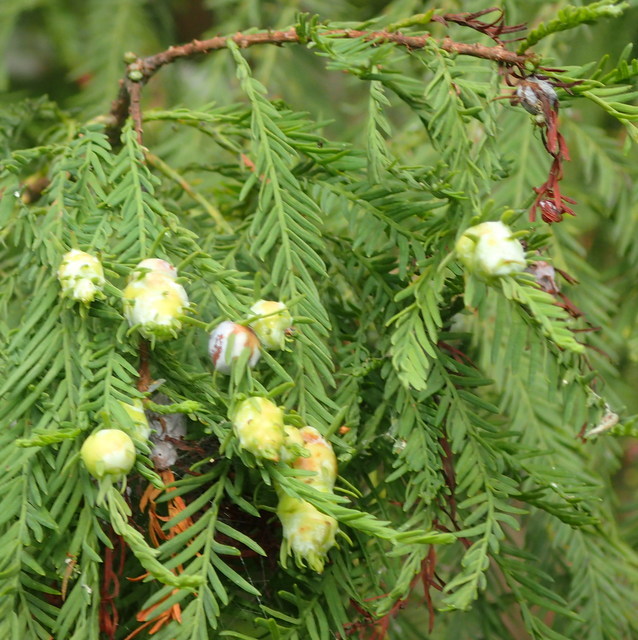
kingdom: Animalia
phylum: Arthropoda
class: Insecta
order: Diptera
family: Cecidomyiidae
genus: Taxodiomyia
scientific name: Taxodiomyia cupressiananassa
